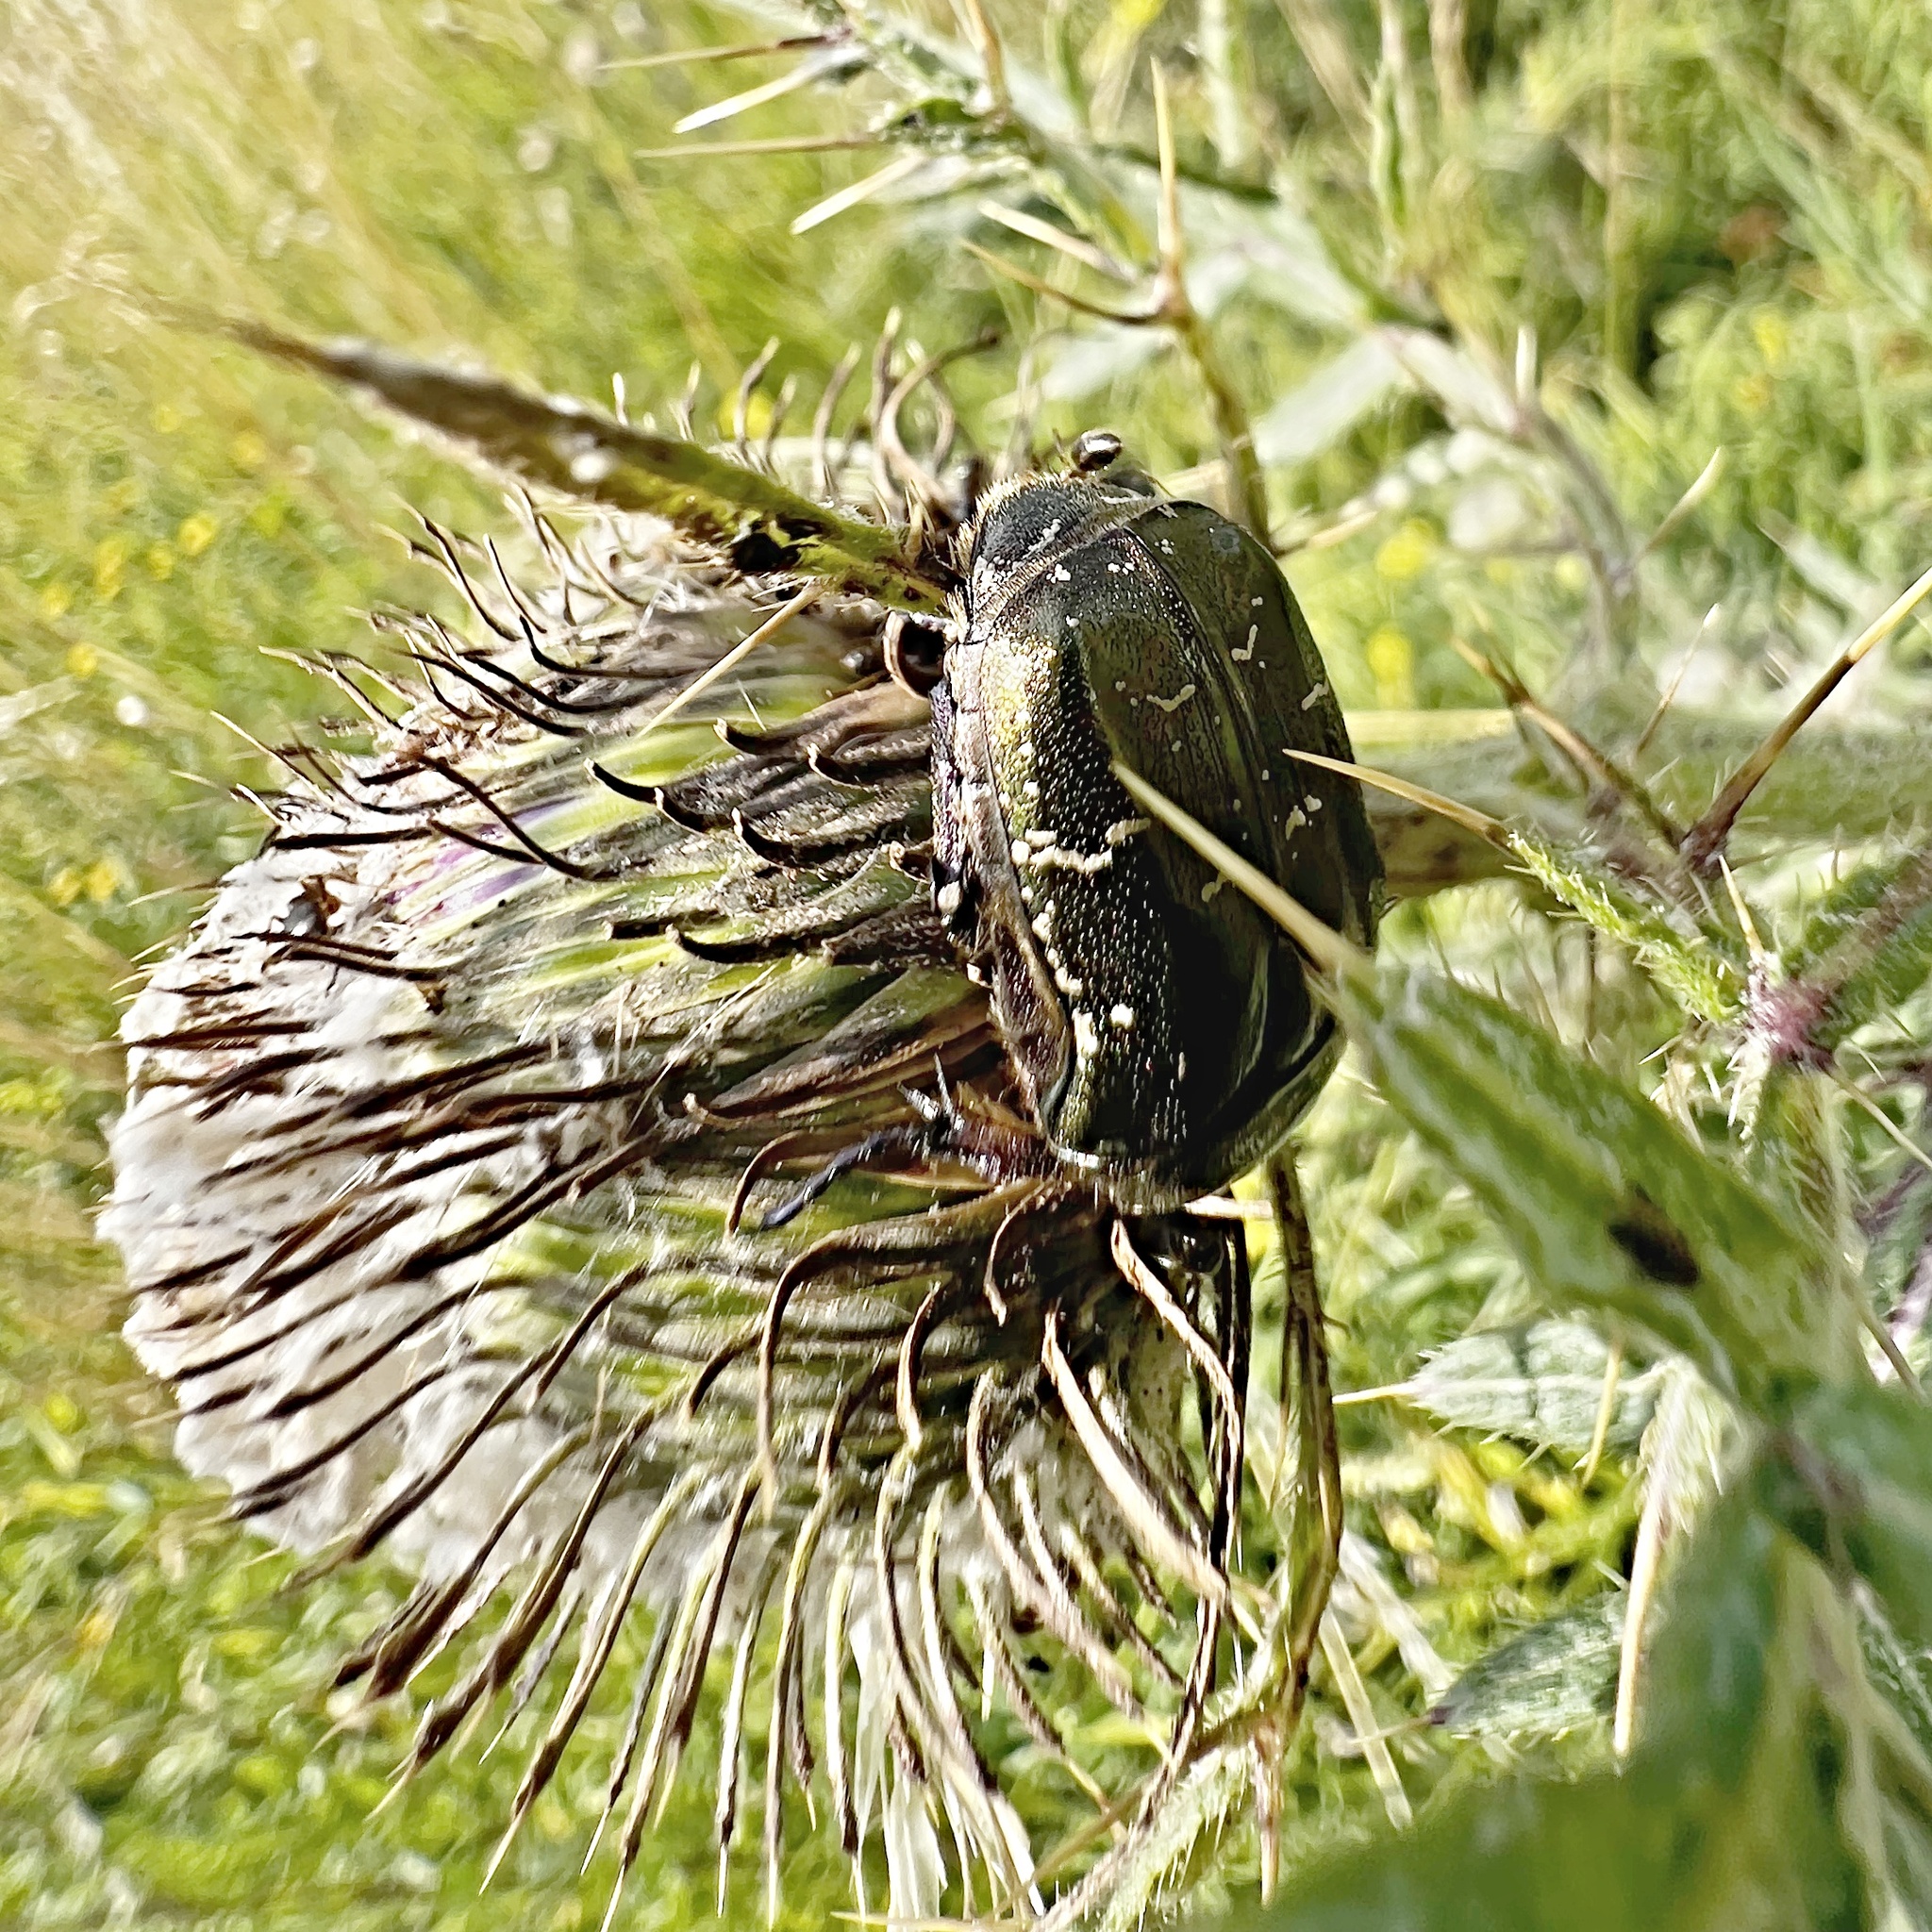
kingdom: Animalia
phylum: Arthropoda
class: Insecta
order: Coleoptera
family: Scarabaeidae
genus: Protaetia
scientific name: Protaetia cuprea
